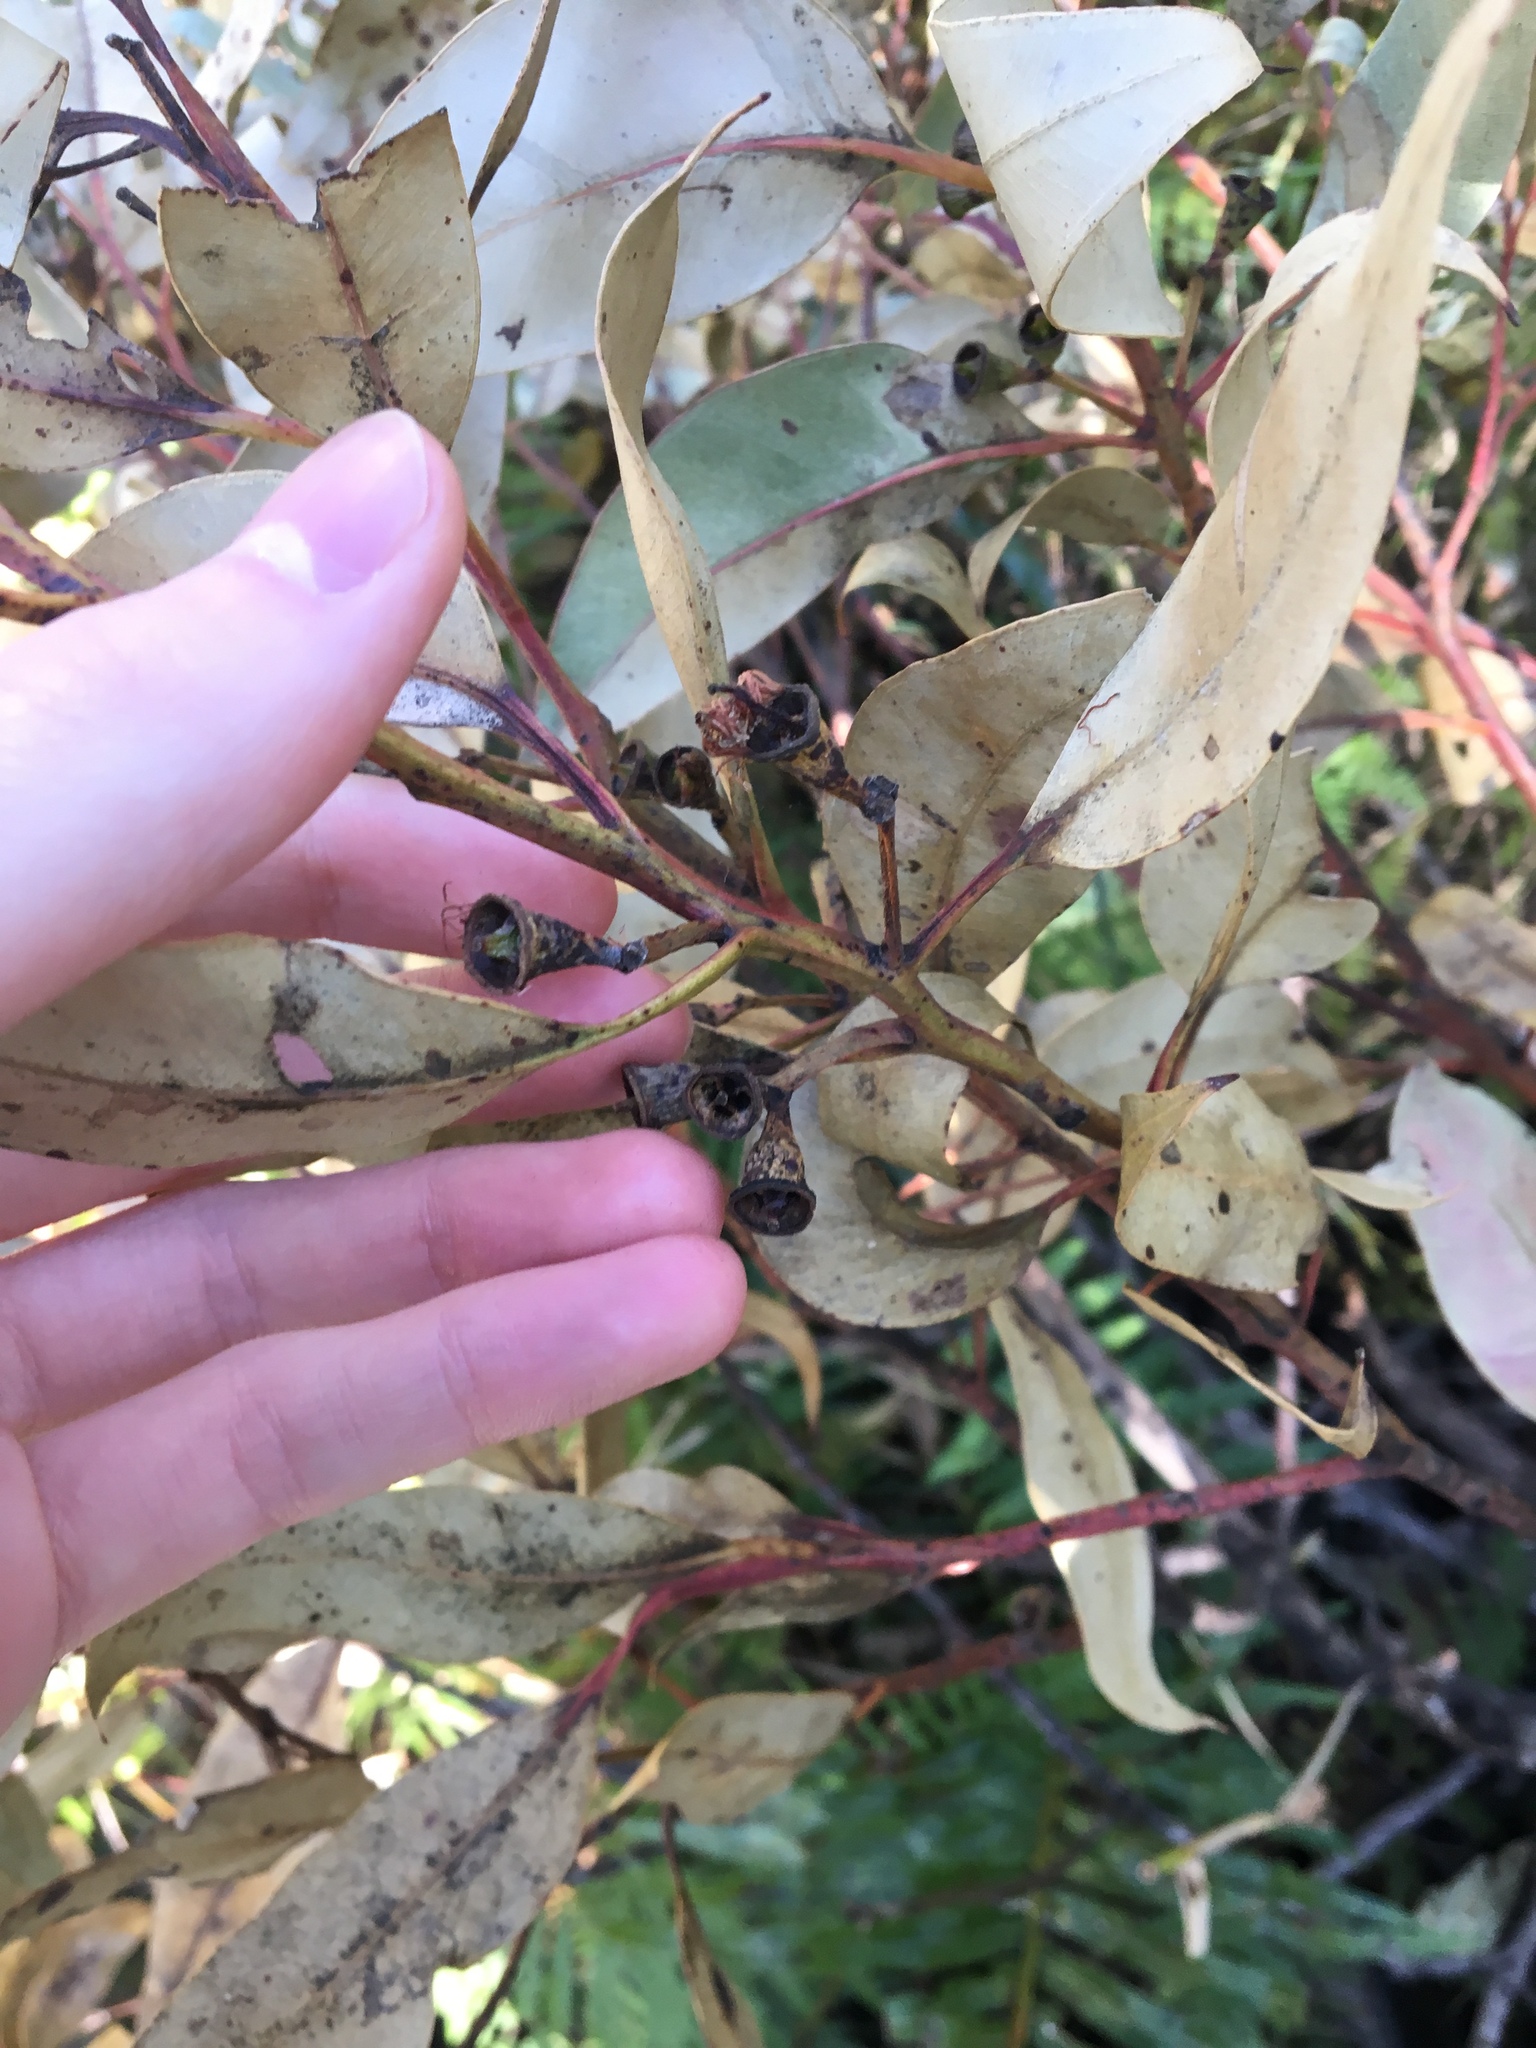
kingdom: Plantae
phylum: Tracheophyta
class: Magnoliopsida
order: Myrtales
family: Myrtaceae
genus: Eucalyptus
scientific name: Eucalyptus robusta
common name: Swampmahogany
